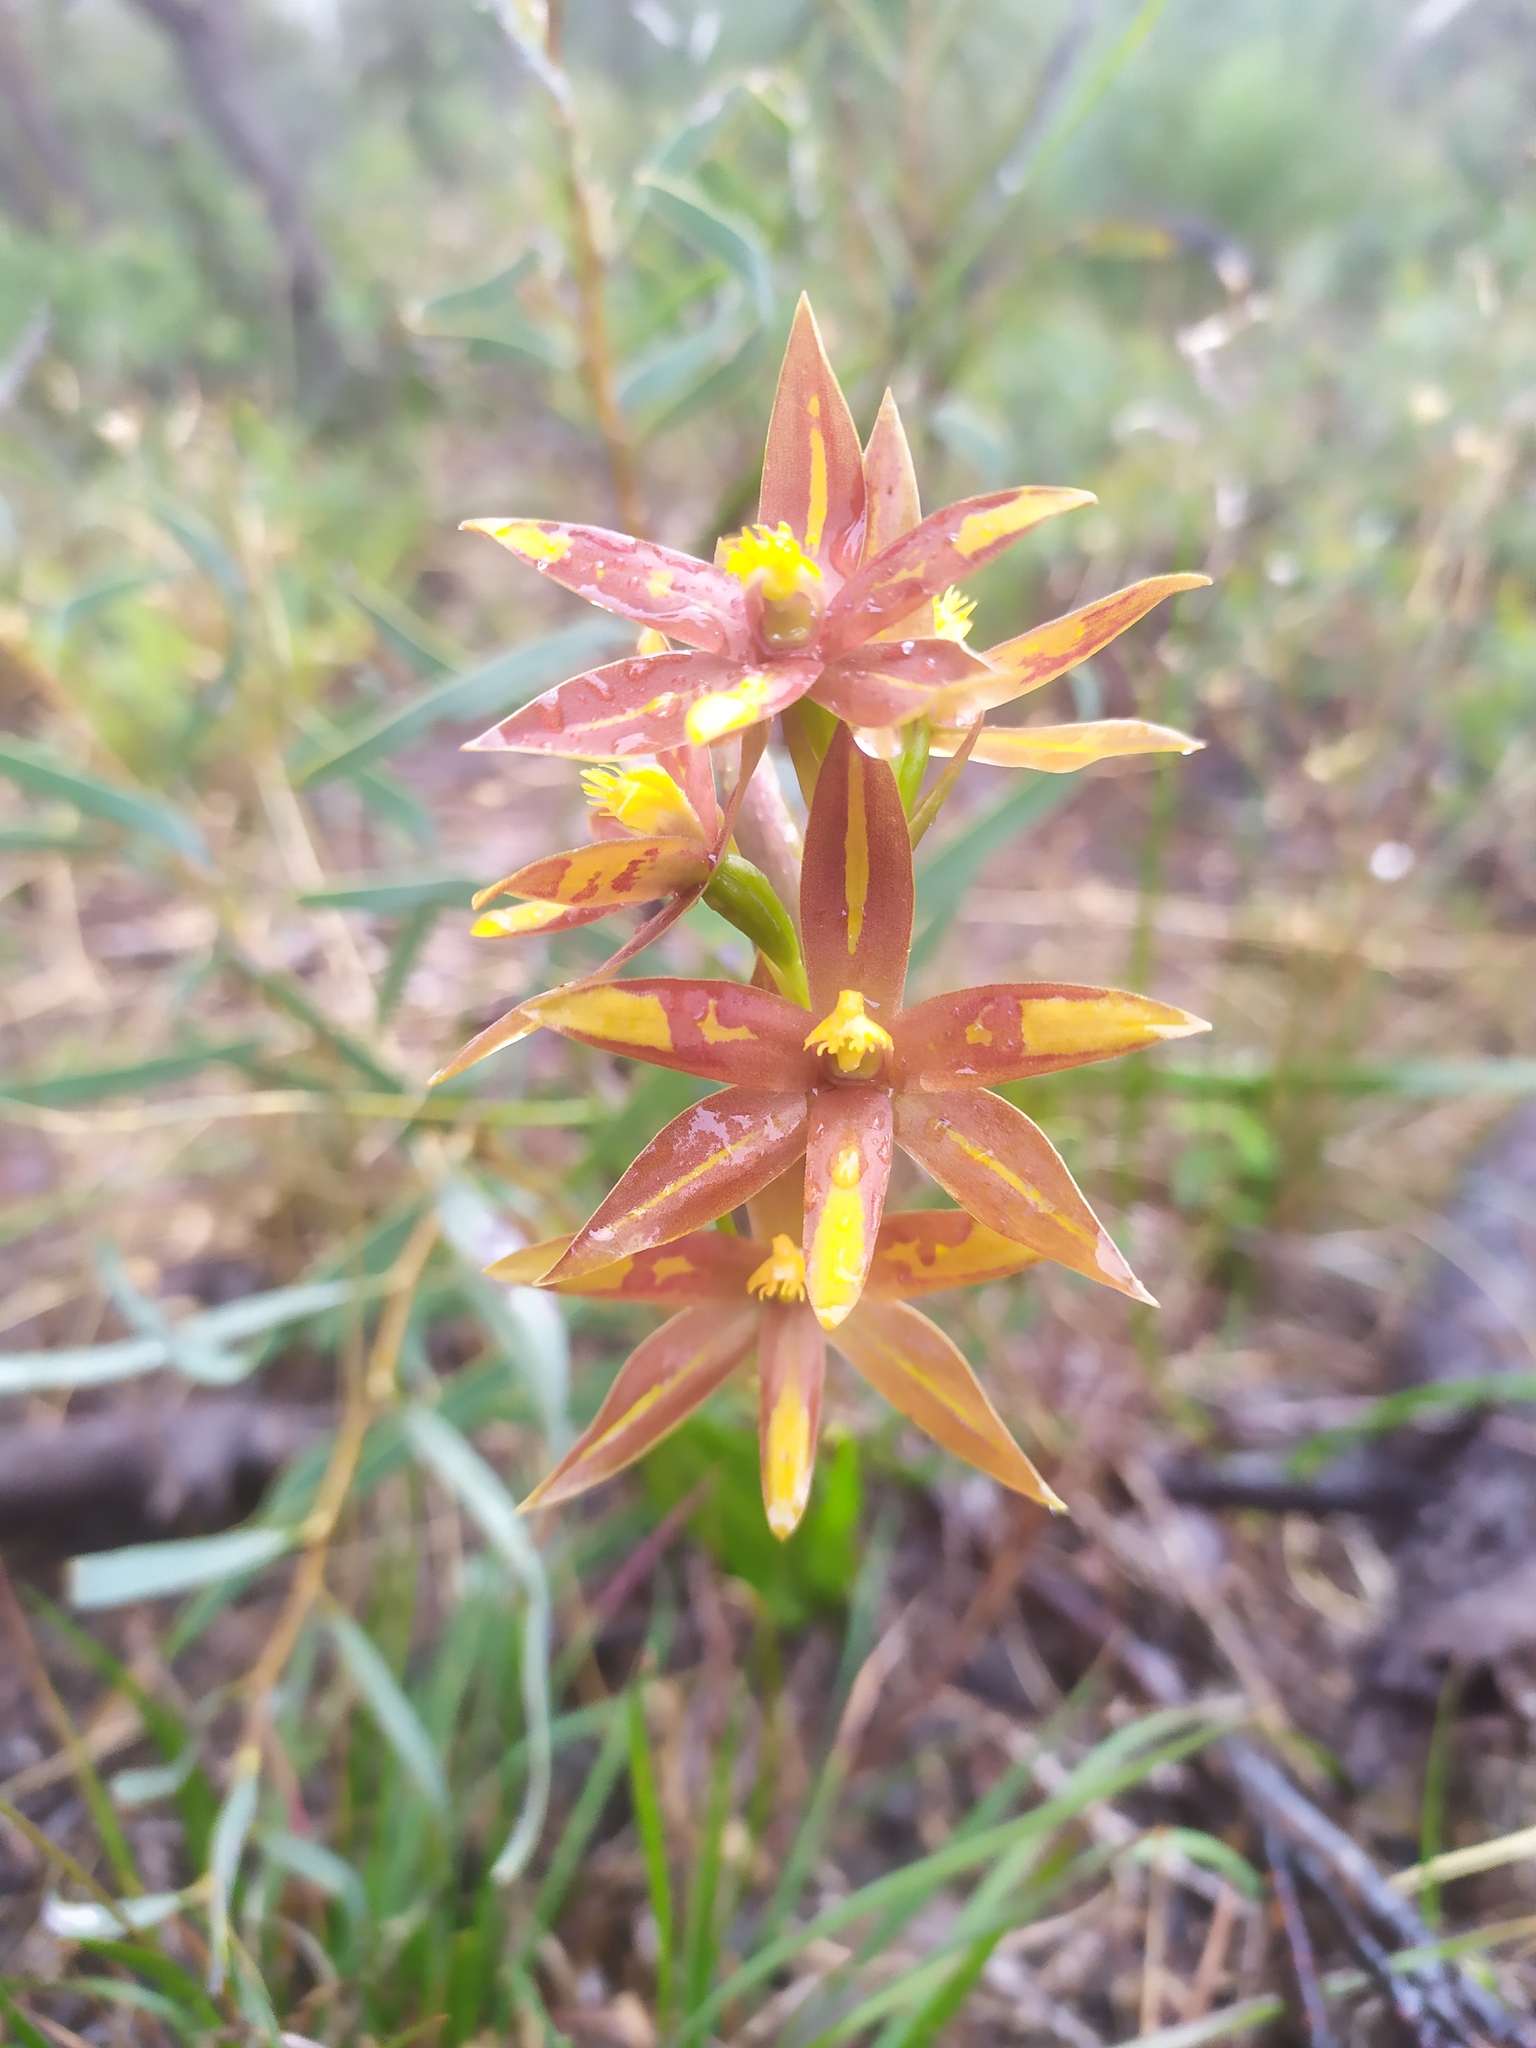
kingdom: Plantae
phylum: Tracheophyta
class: Liliopsida
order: Asparagales
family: Orchidaceae
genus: Thelymitra
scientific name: Thelymitra magnifica
